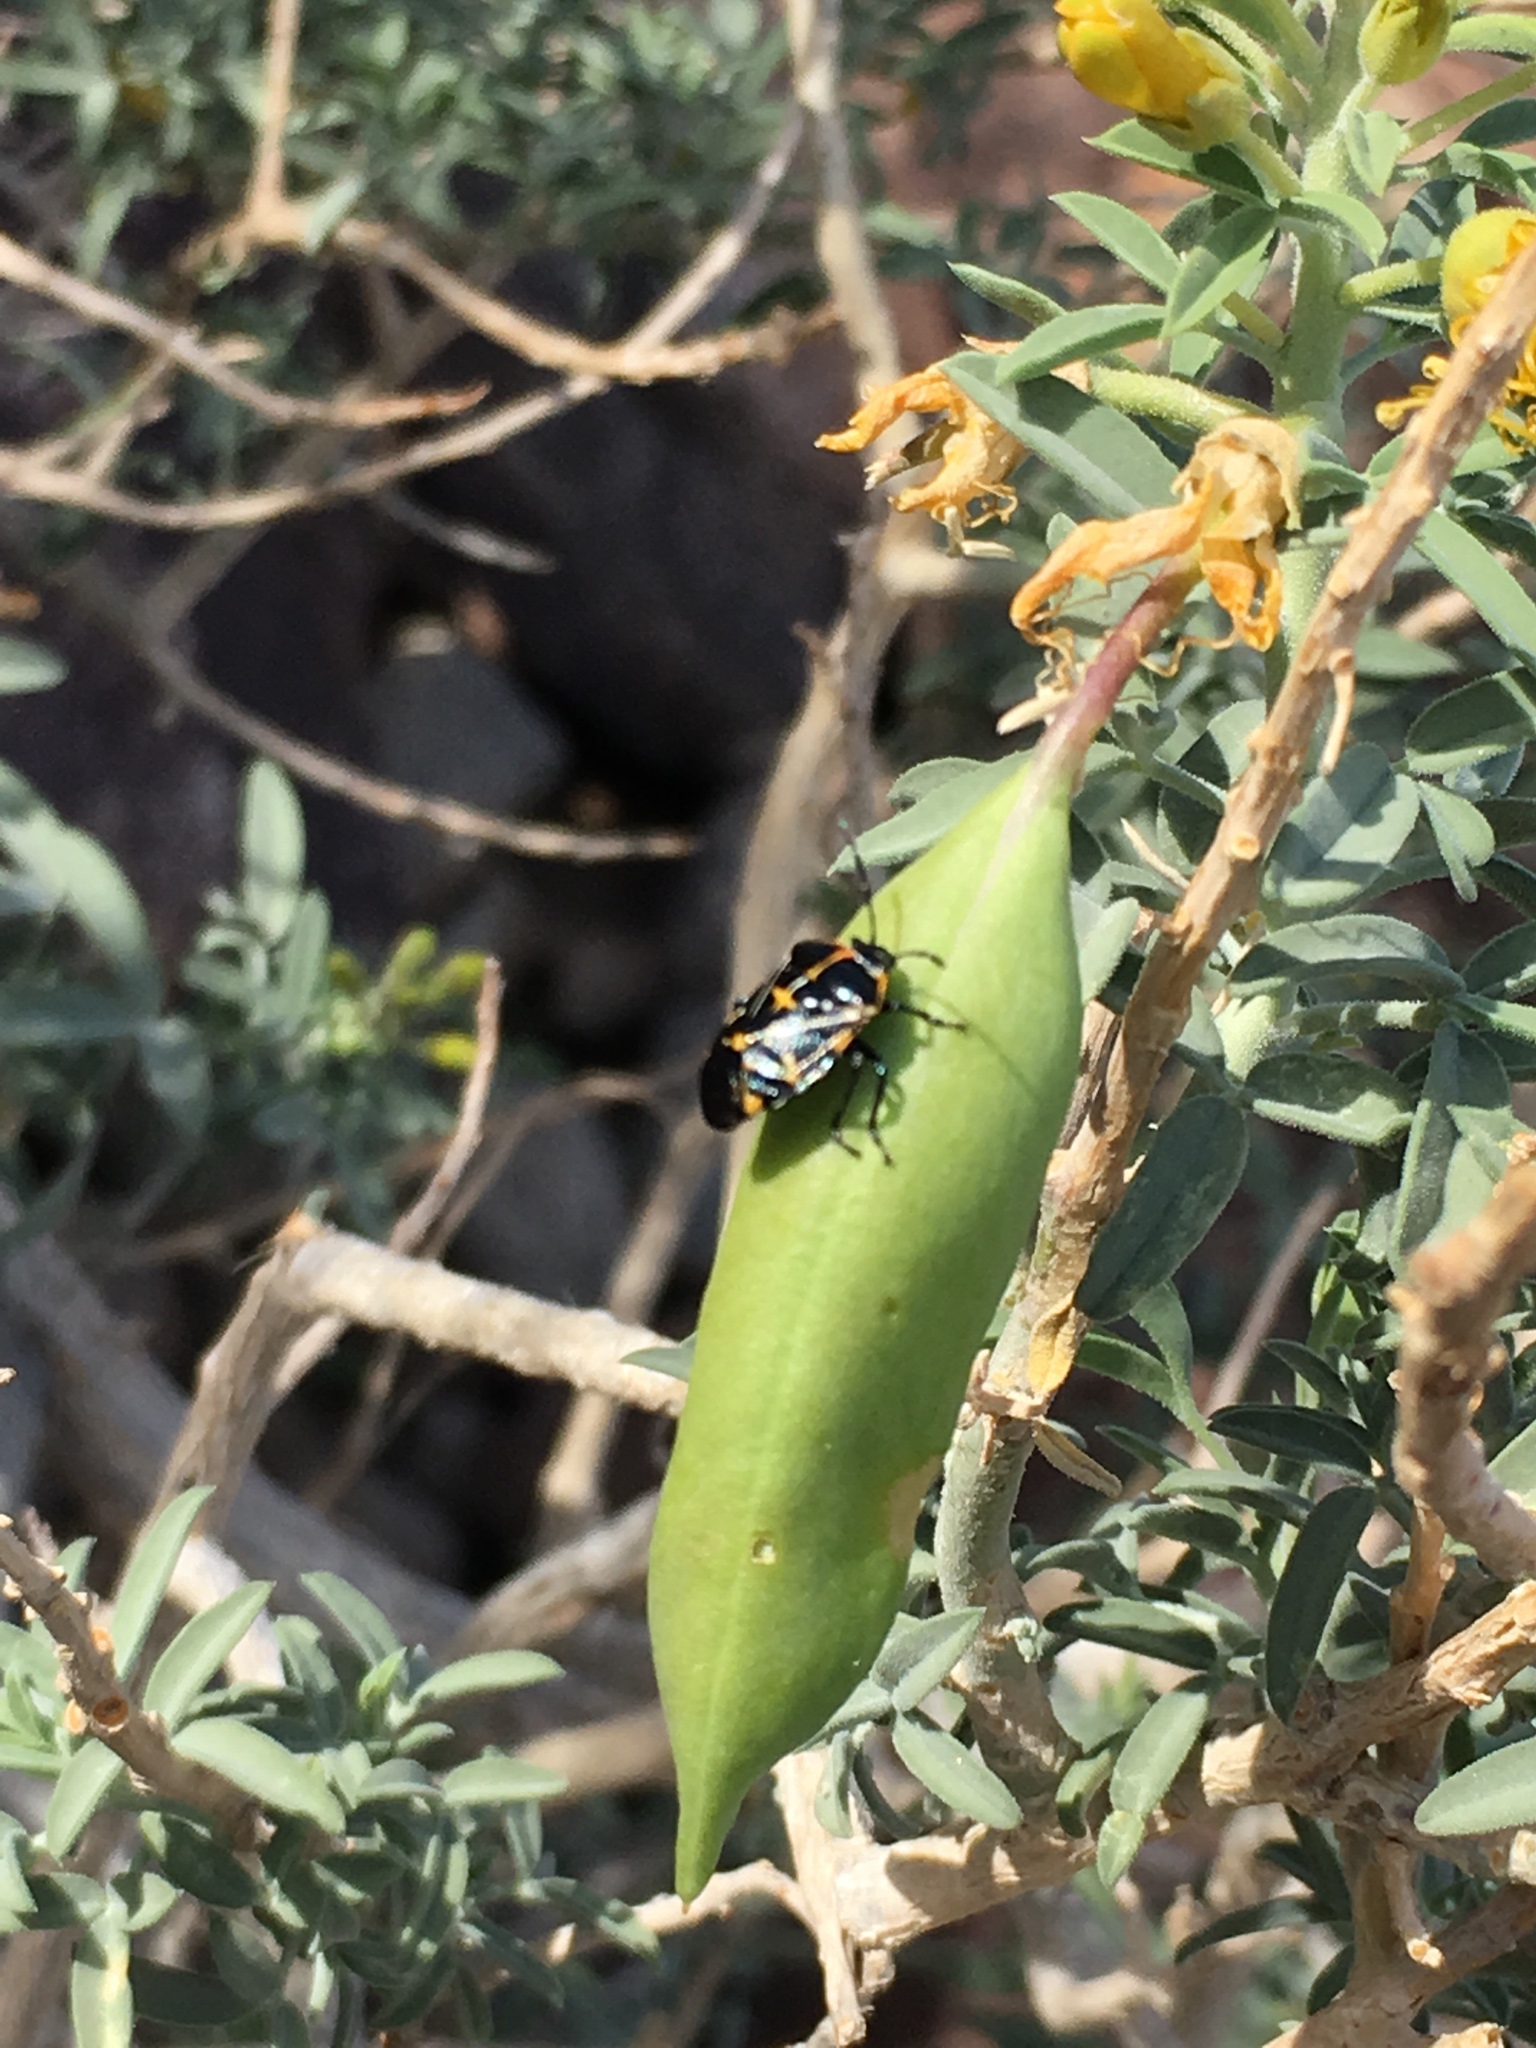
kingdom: Animalia
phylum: Arthropoda
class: Insecta
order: Hemiptera
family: Pentatomidae
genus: Murgantia
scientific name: Murgantia histrionica
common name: Harlequin bug
